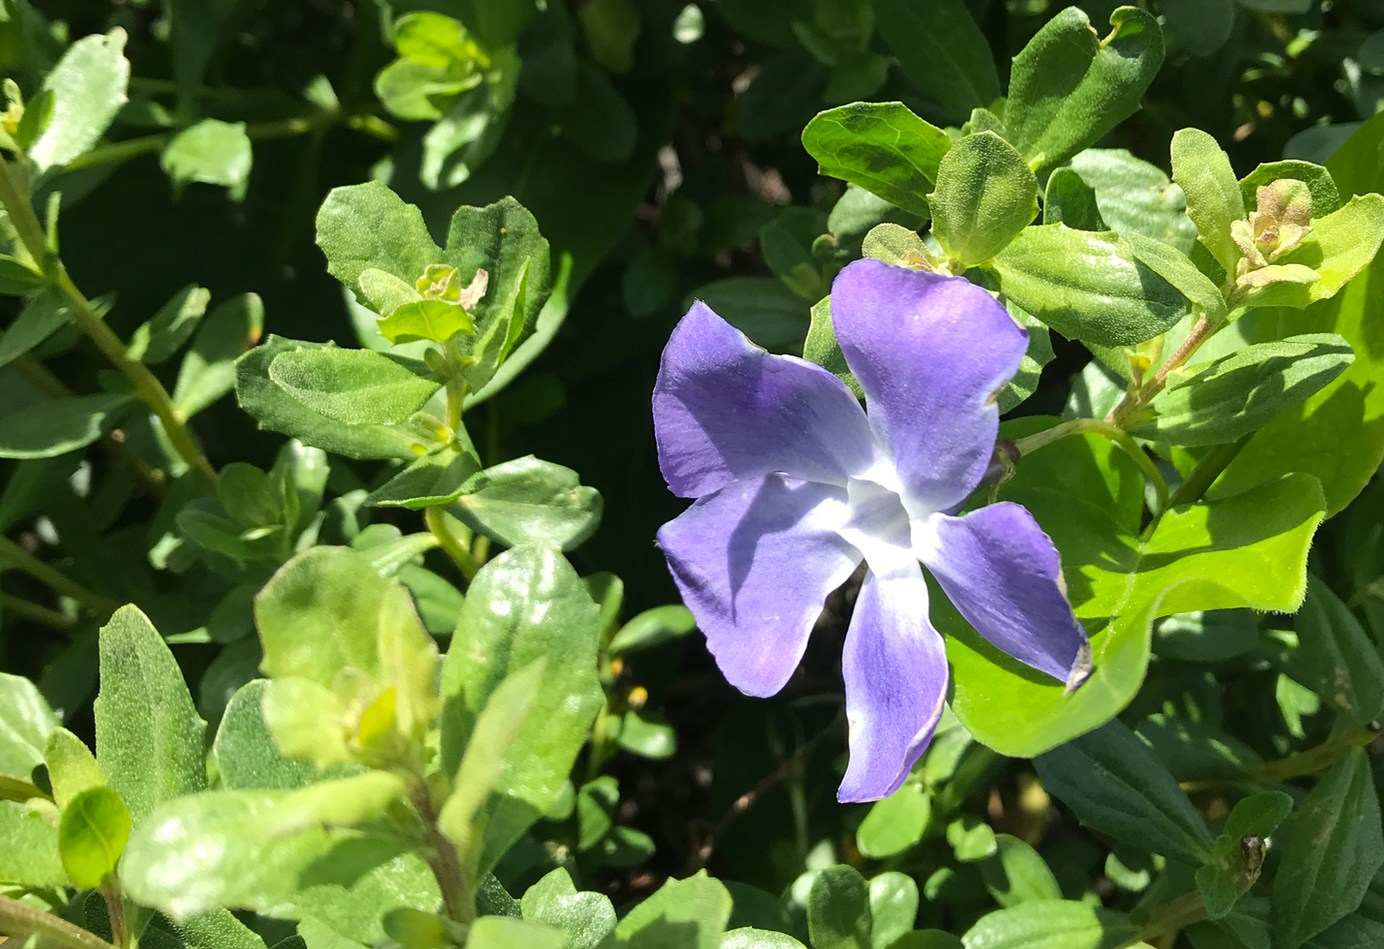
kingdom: Plantae
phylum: Tracheophyta
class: Magnoliopsida
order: Gentianales
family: Apocynaceae
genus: Vinca
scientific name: Vinca major
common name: Greater periwinkle
